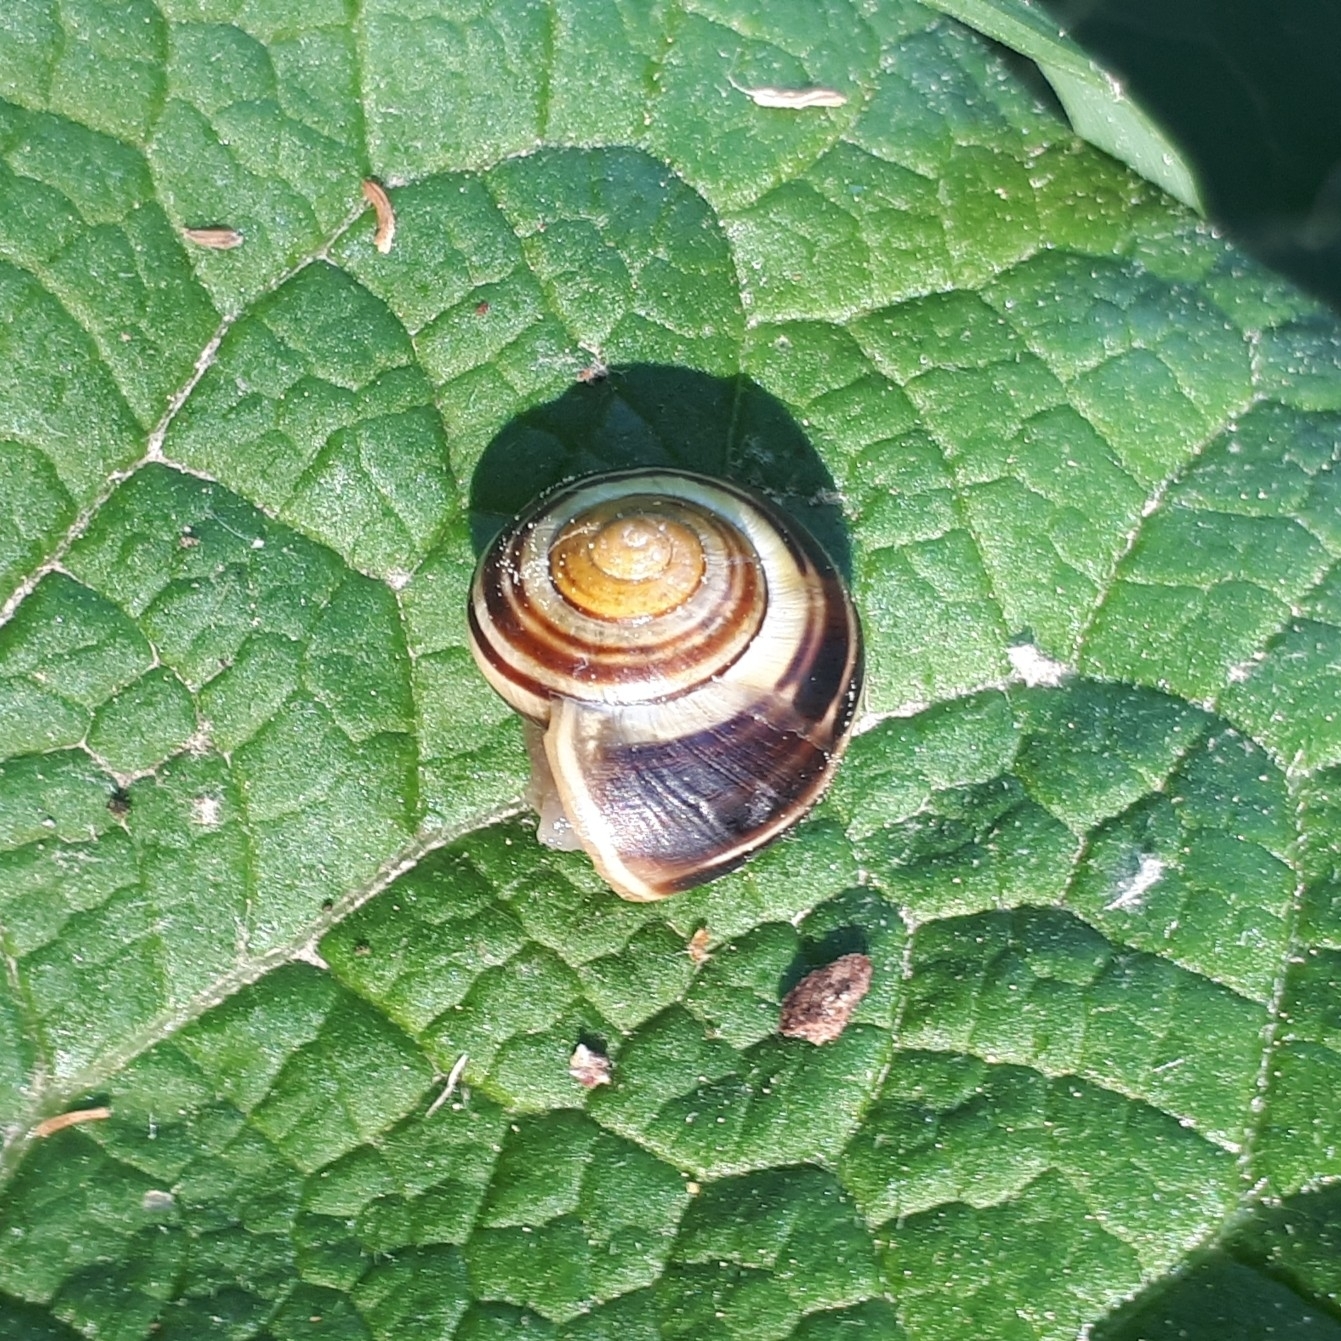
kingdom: Animalia
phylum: Mollusca
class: Gastropoda
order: Stylommatophora
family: Helicidae
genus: Cepaea
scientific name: Cepaea
